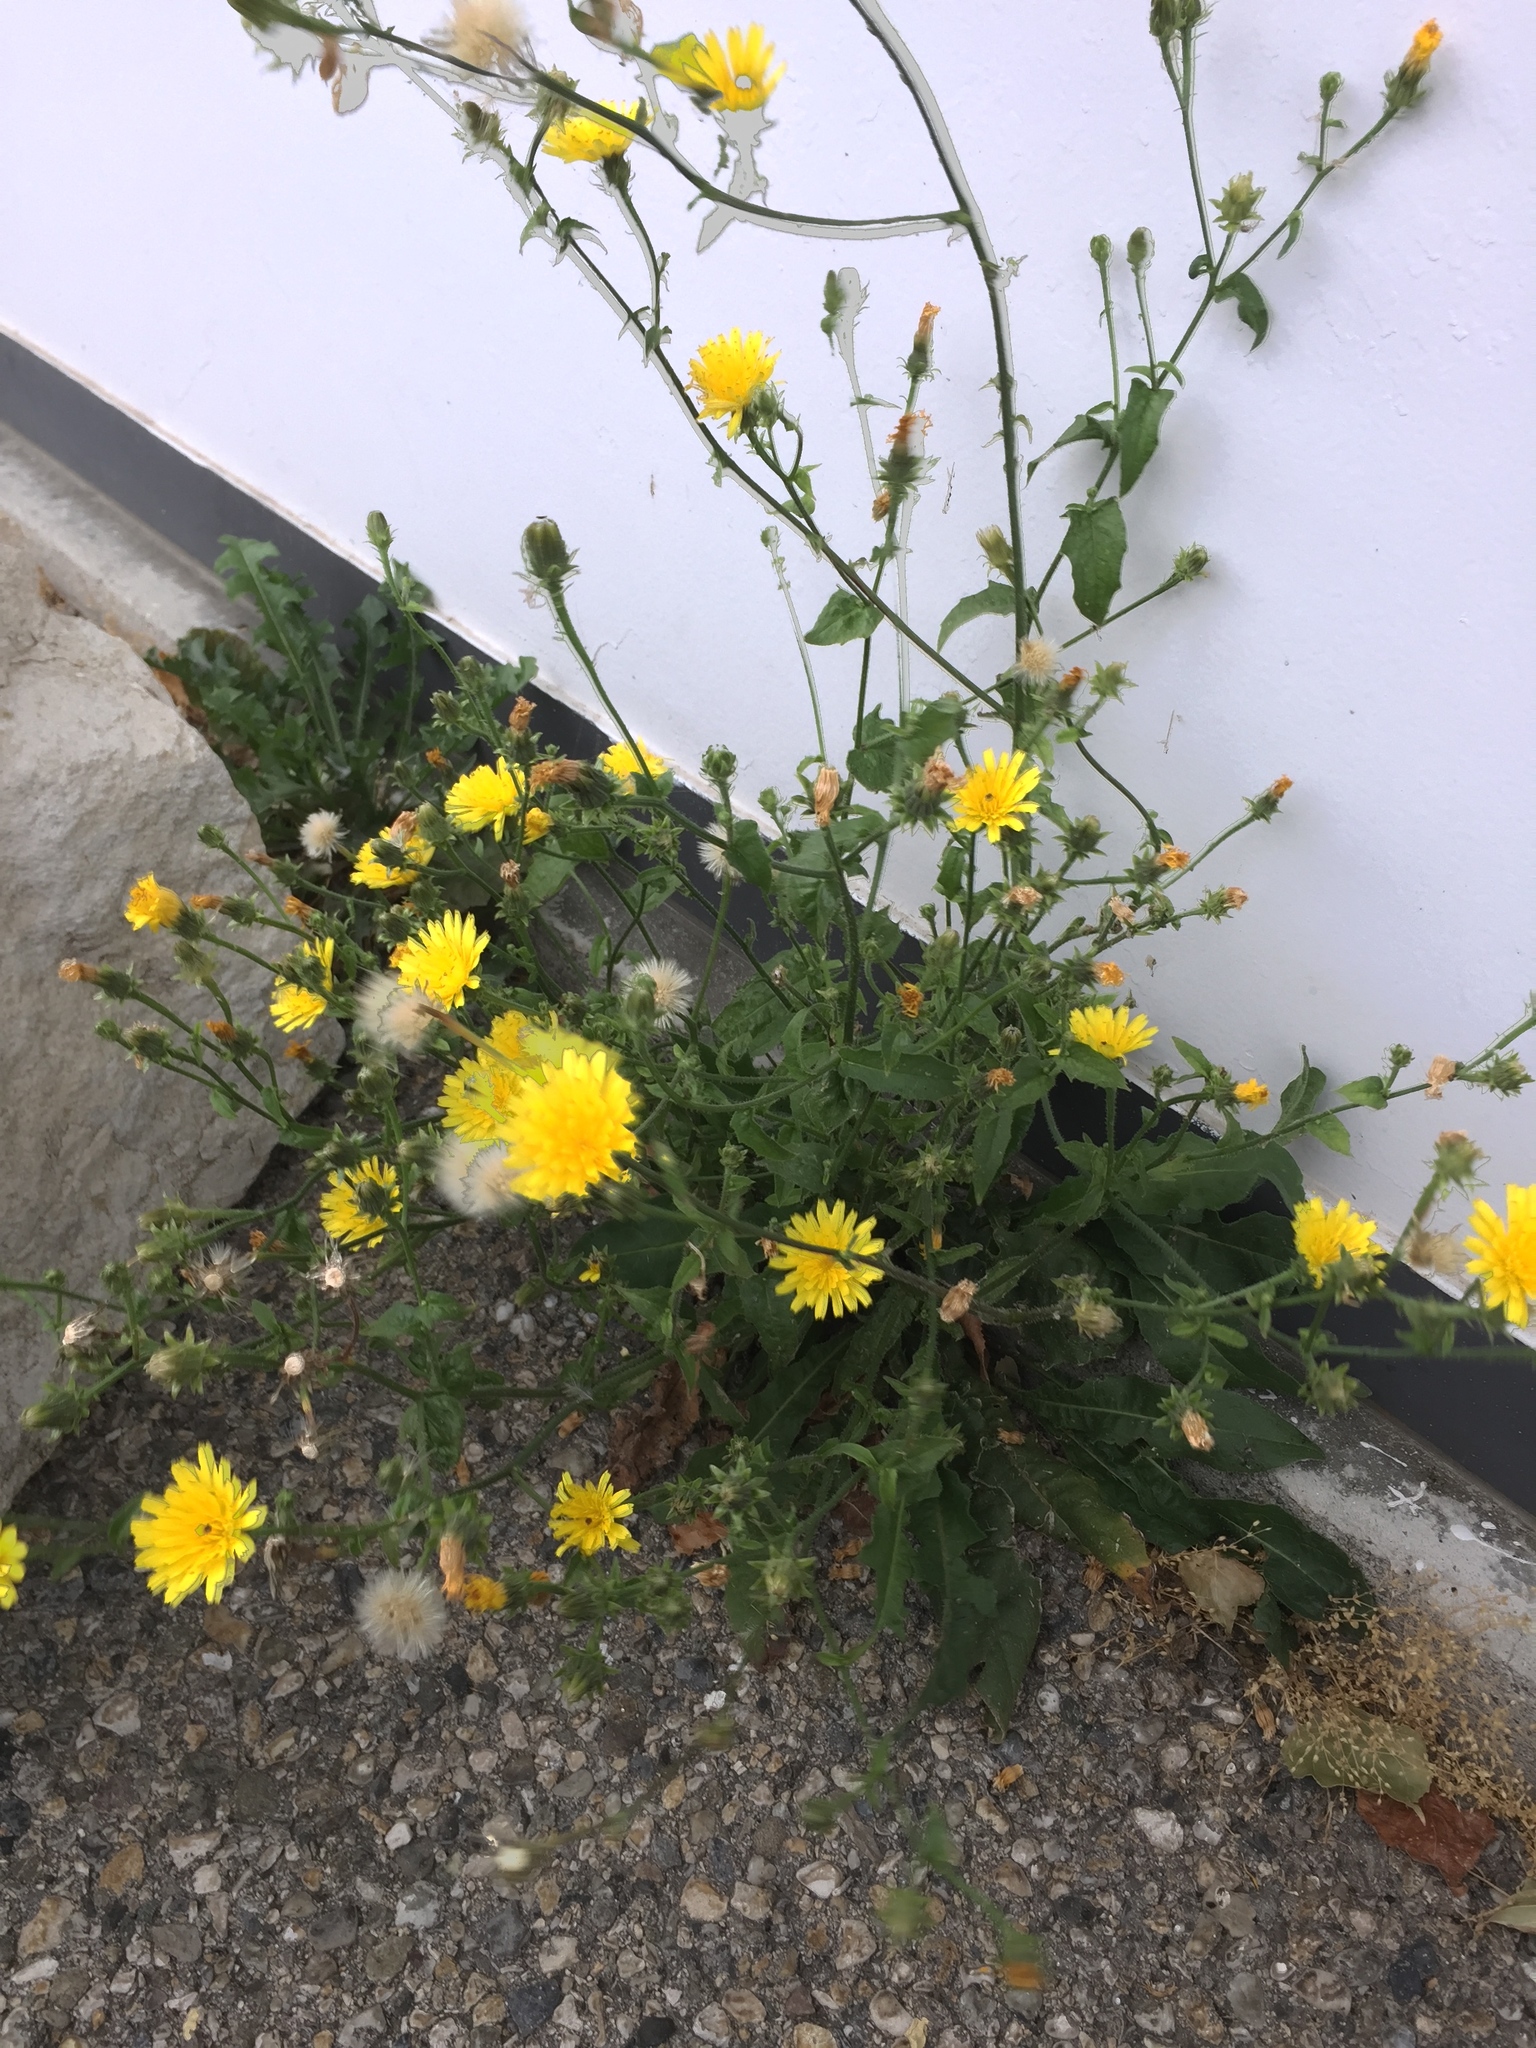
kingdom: Plantae
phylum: Tracheophyta
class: Magnoliopsida
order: Asterales
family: Asteraceae
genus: Picris
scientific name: Picris hieracioides
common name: Hawkweed oxtongue
